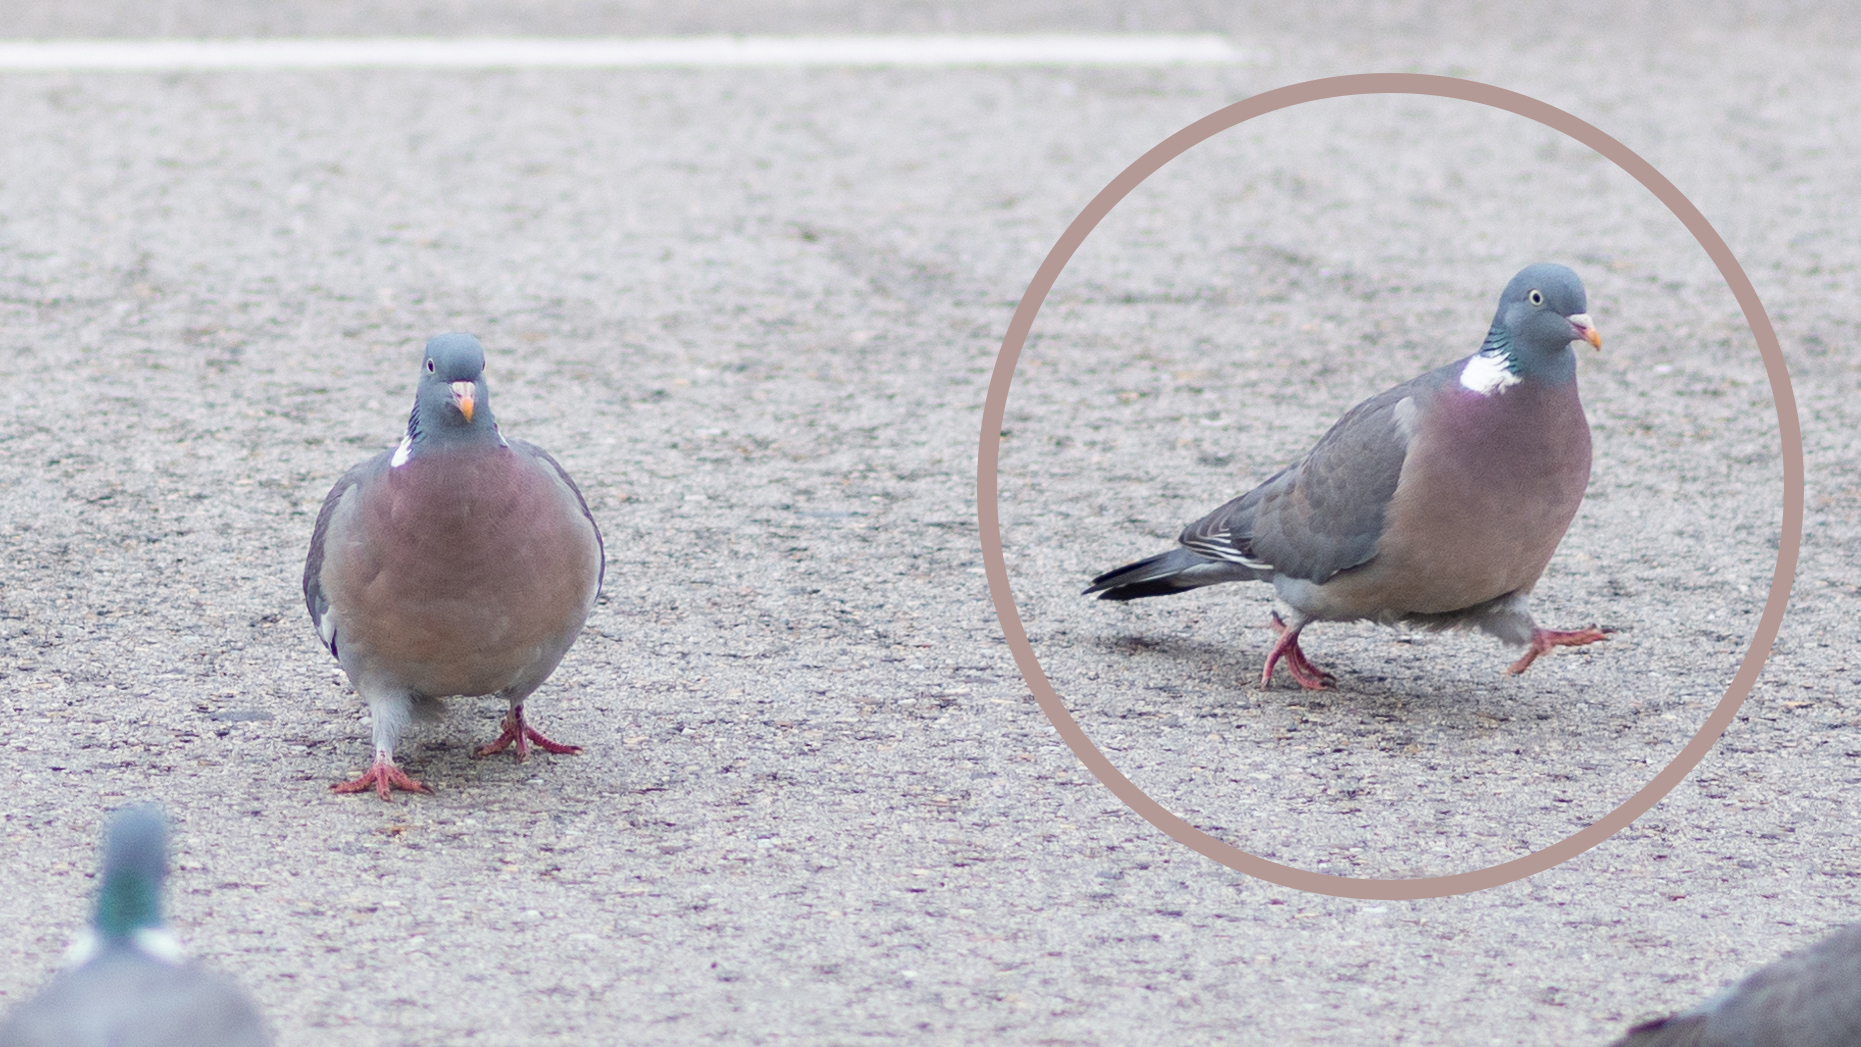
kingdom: Animalia
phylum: Chordata
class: Aves
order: Columbiformes
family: Columbidae
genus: Columba
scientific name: Columba palumbus
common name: Common wood pigeon
